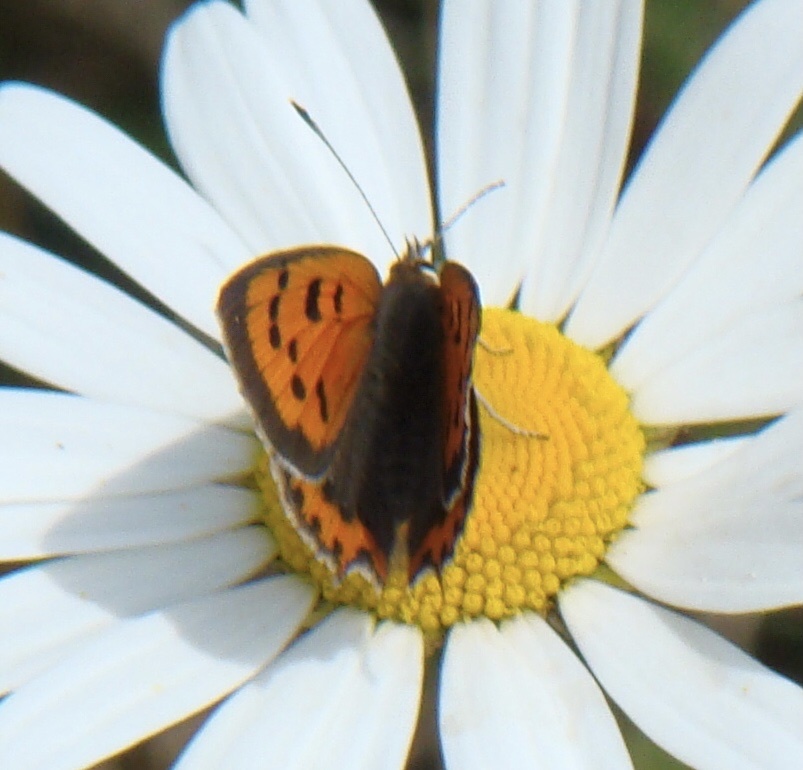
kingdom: Animalia
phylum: Arthropoda
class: Insecta
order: Lepidoptera
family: Lycaenidae
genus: Lycaena
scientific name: Lycaena phlaeas
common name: Small copper
